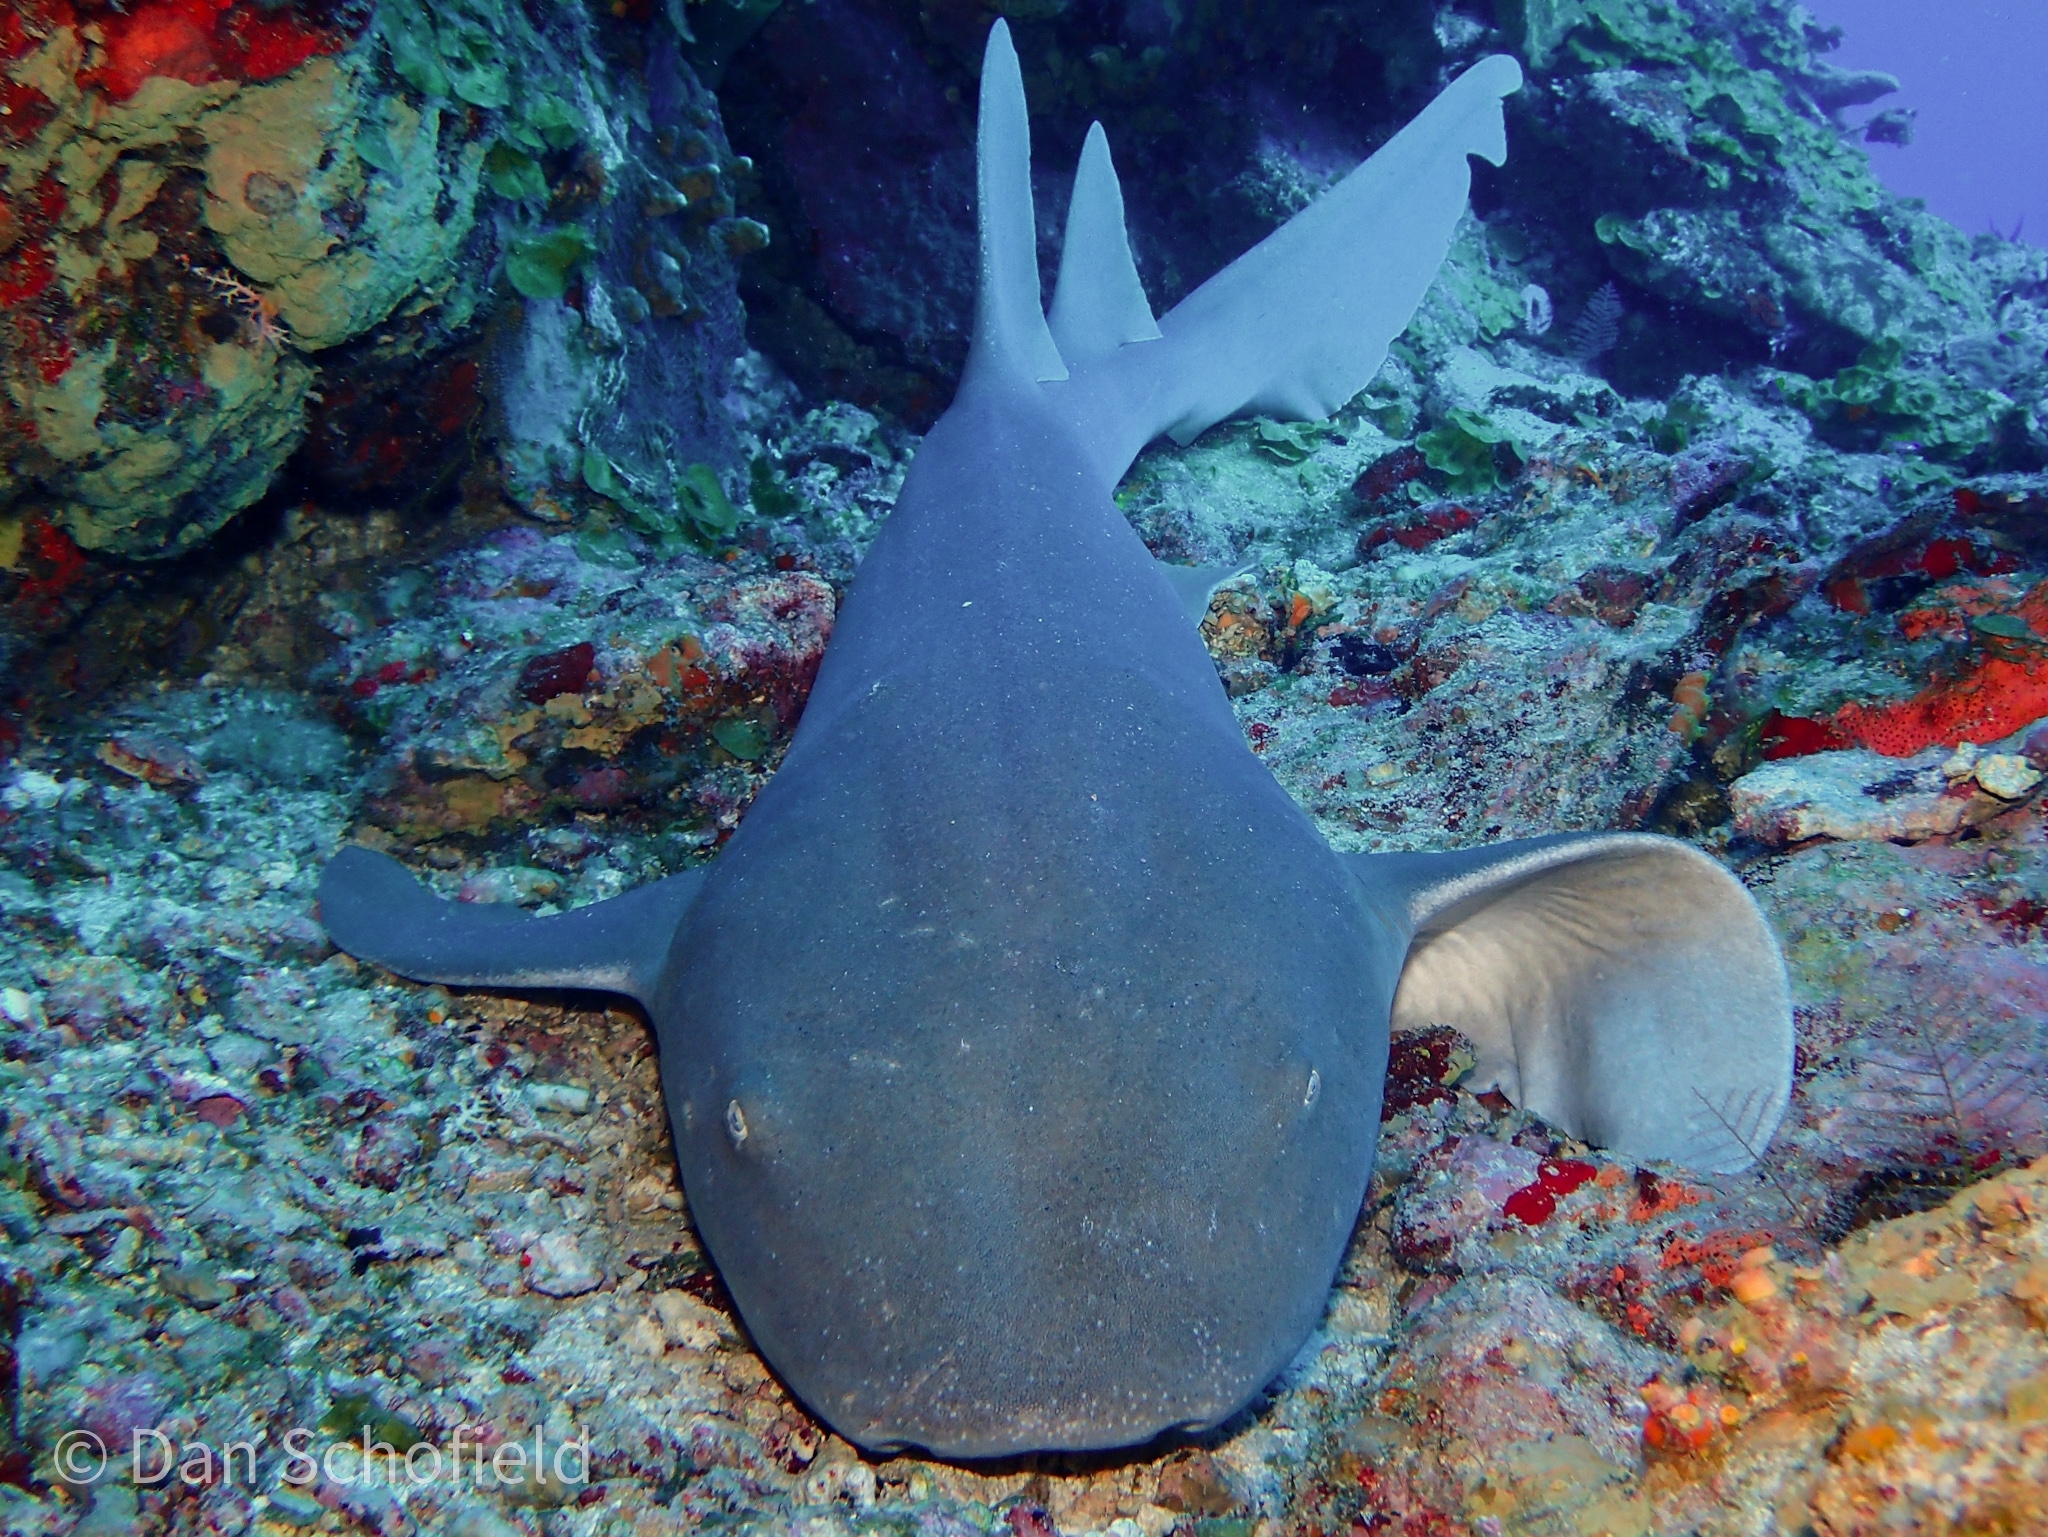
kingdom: Animalia
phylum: Chordata
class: Elasmobranchii
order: Orectolobiformes
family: Ginglymostomatidae
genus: Ginglymostoma
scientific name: Ginglymostoma cirratum
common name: Nurse shark
